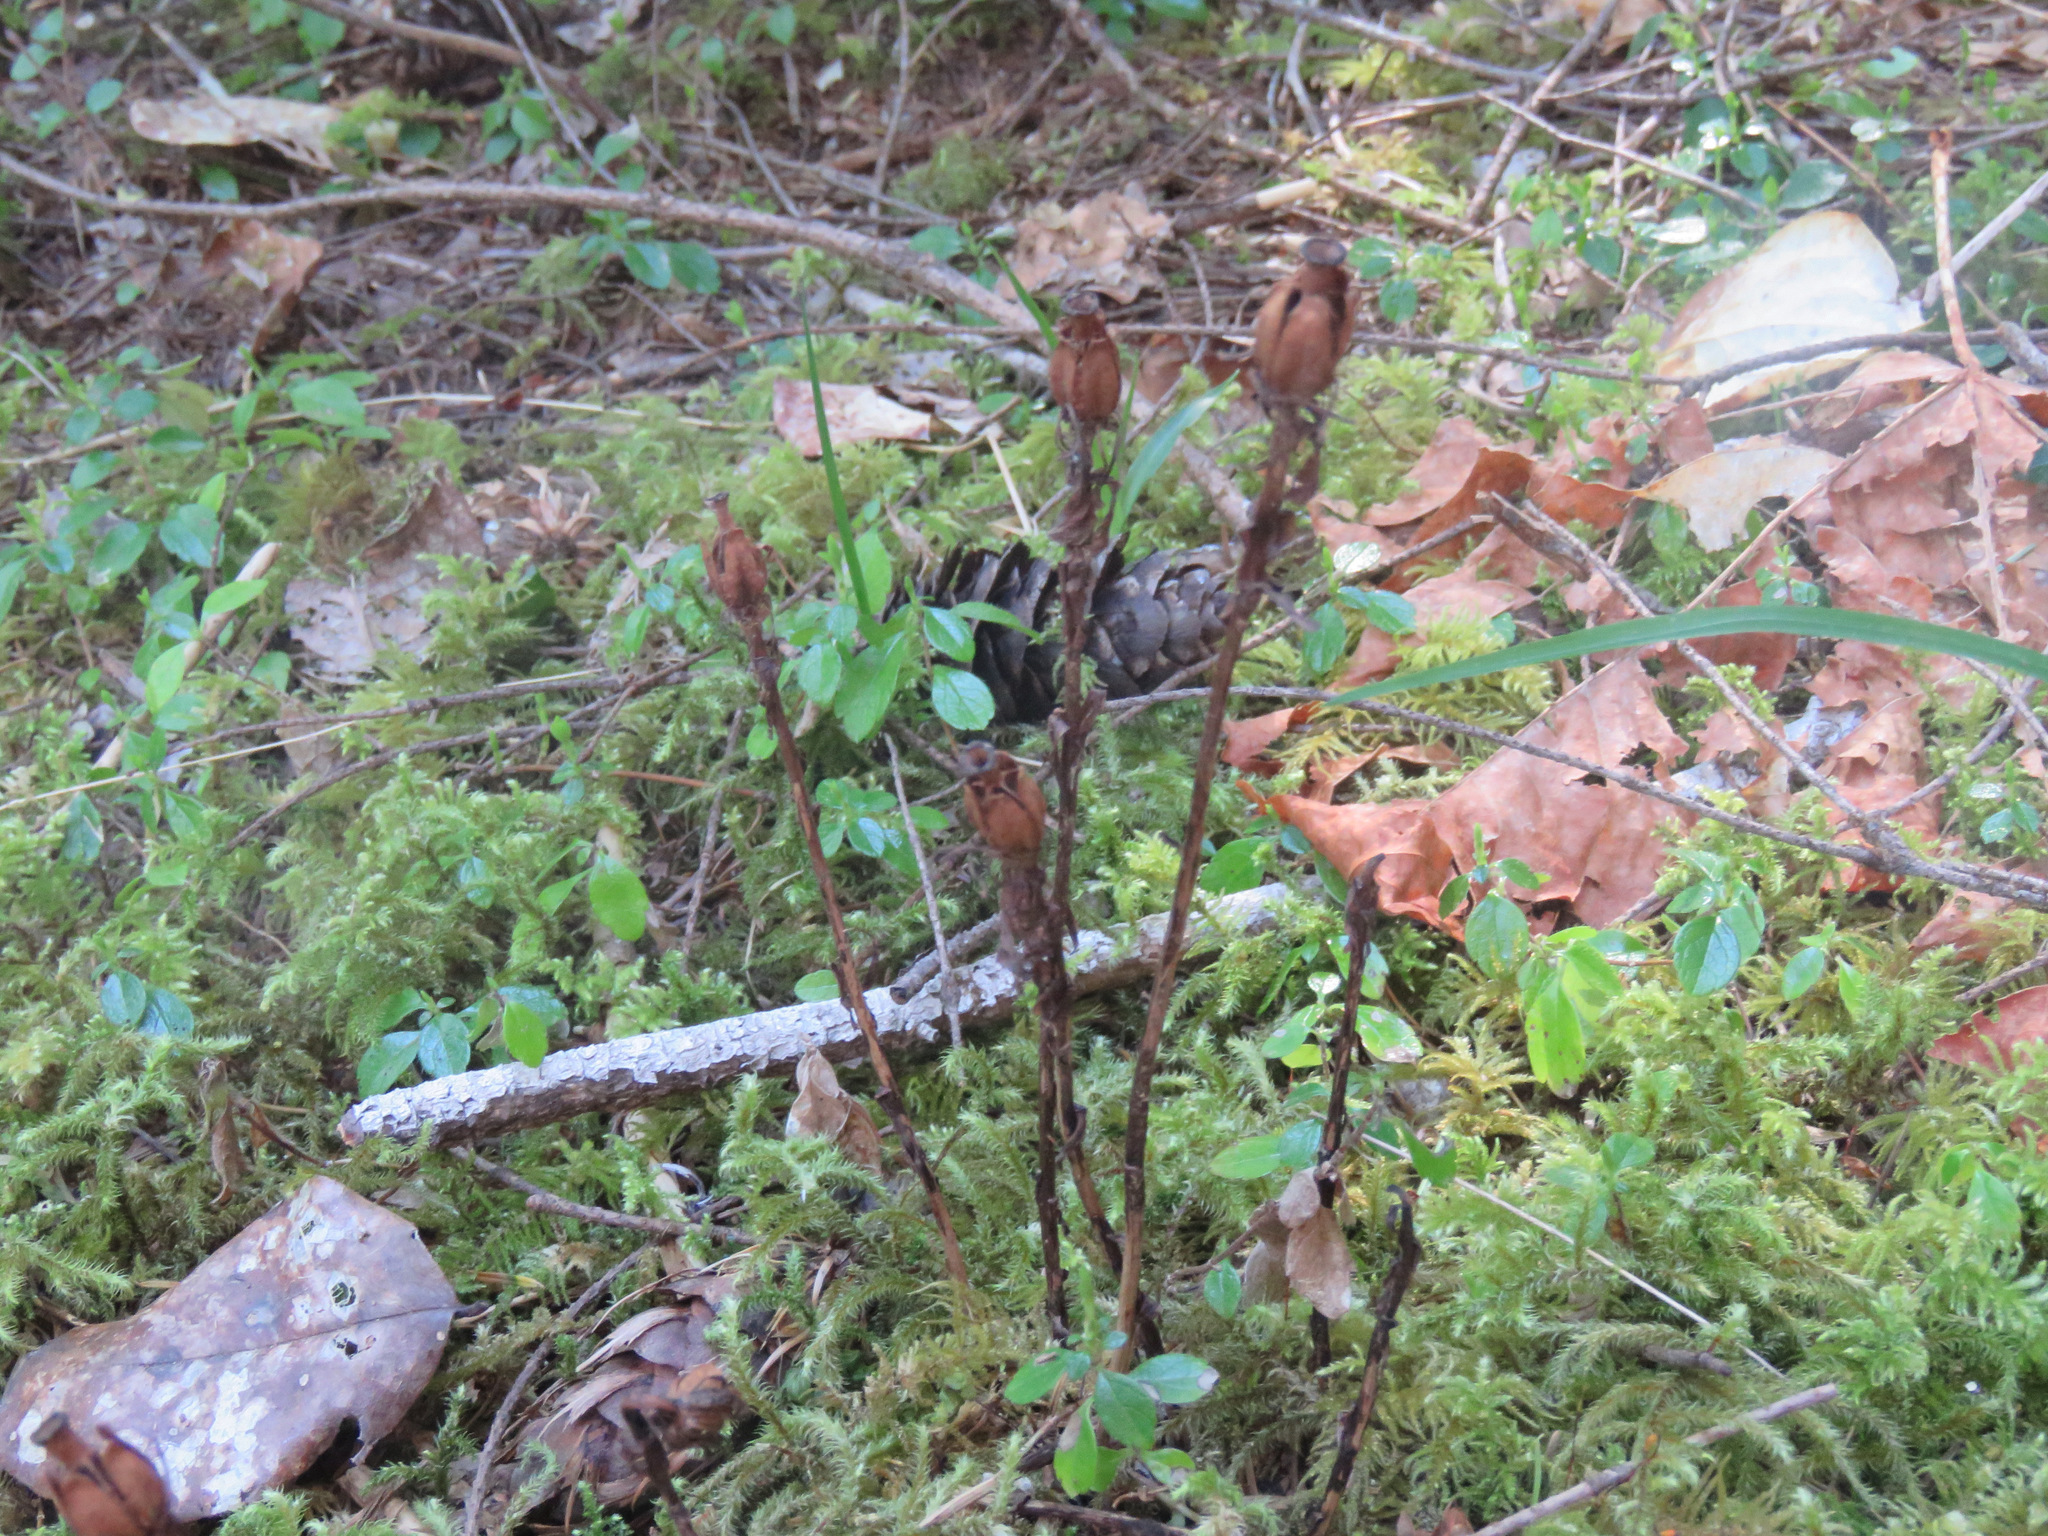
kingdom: Plantae
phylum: Tracheophyta
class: Magnoliopsida
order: Ericales
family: Ericaceae
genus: Monotropa
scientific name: Monotropa uniflora
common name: Convulsion root
